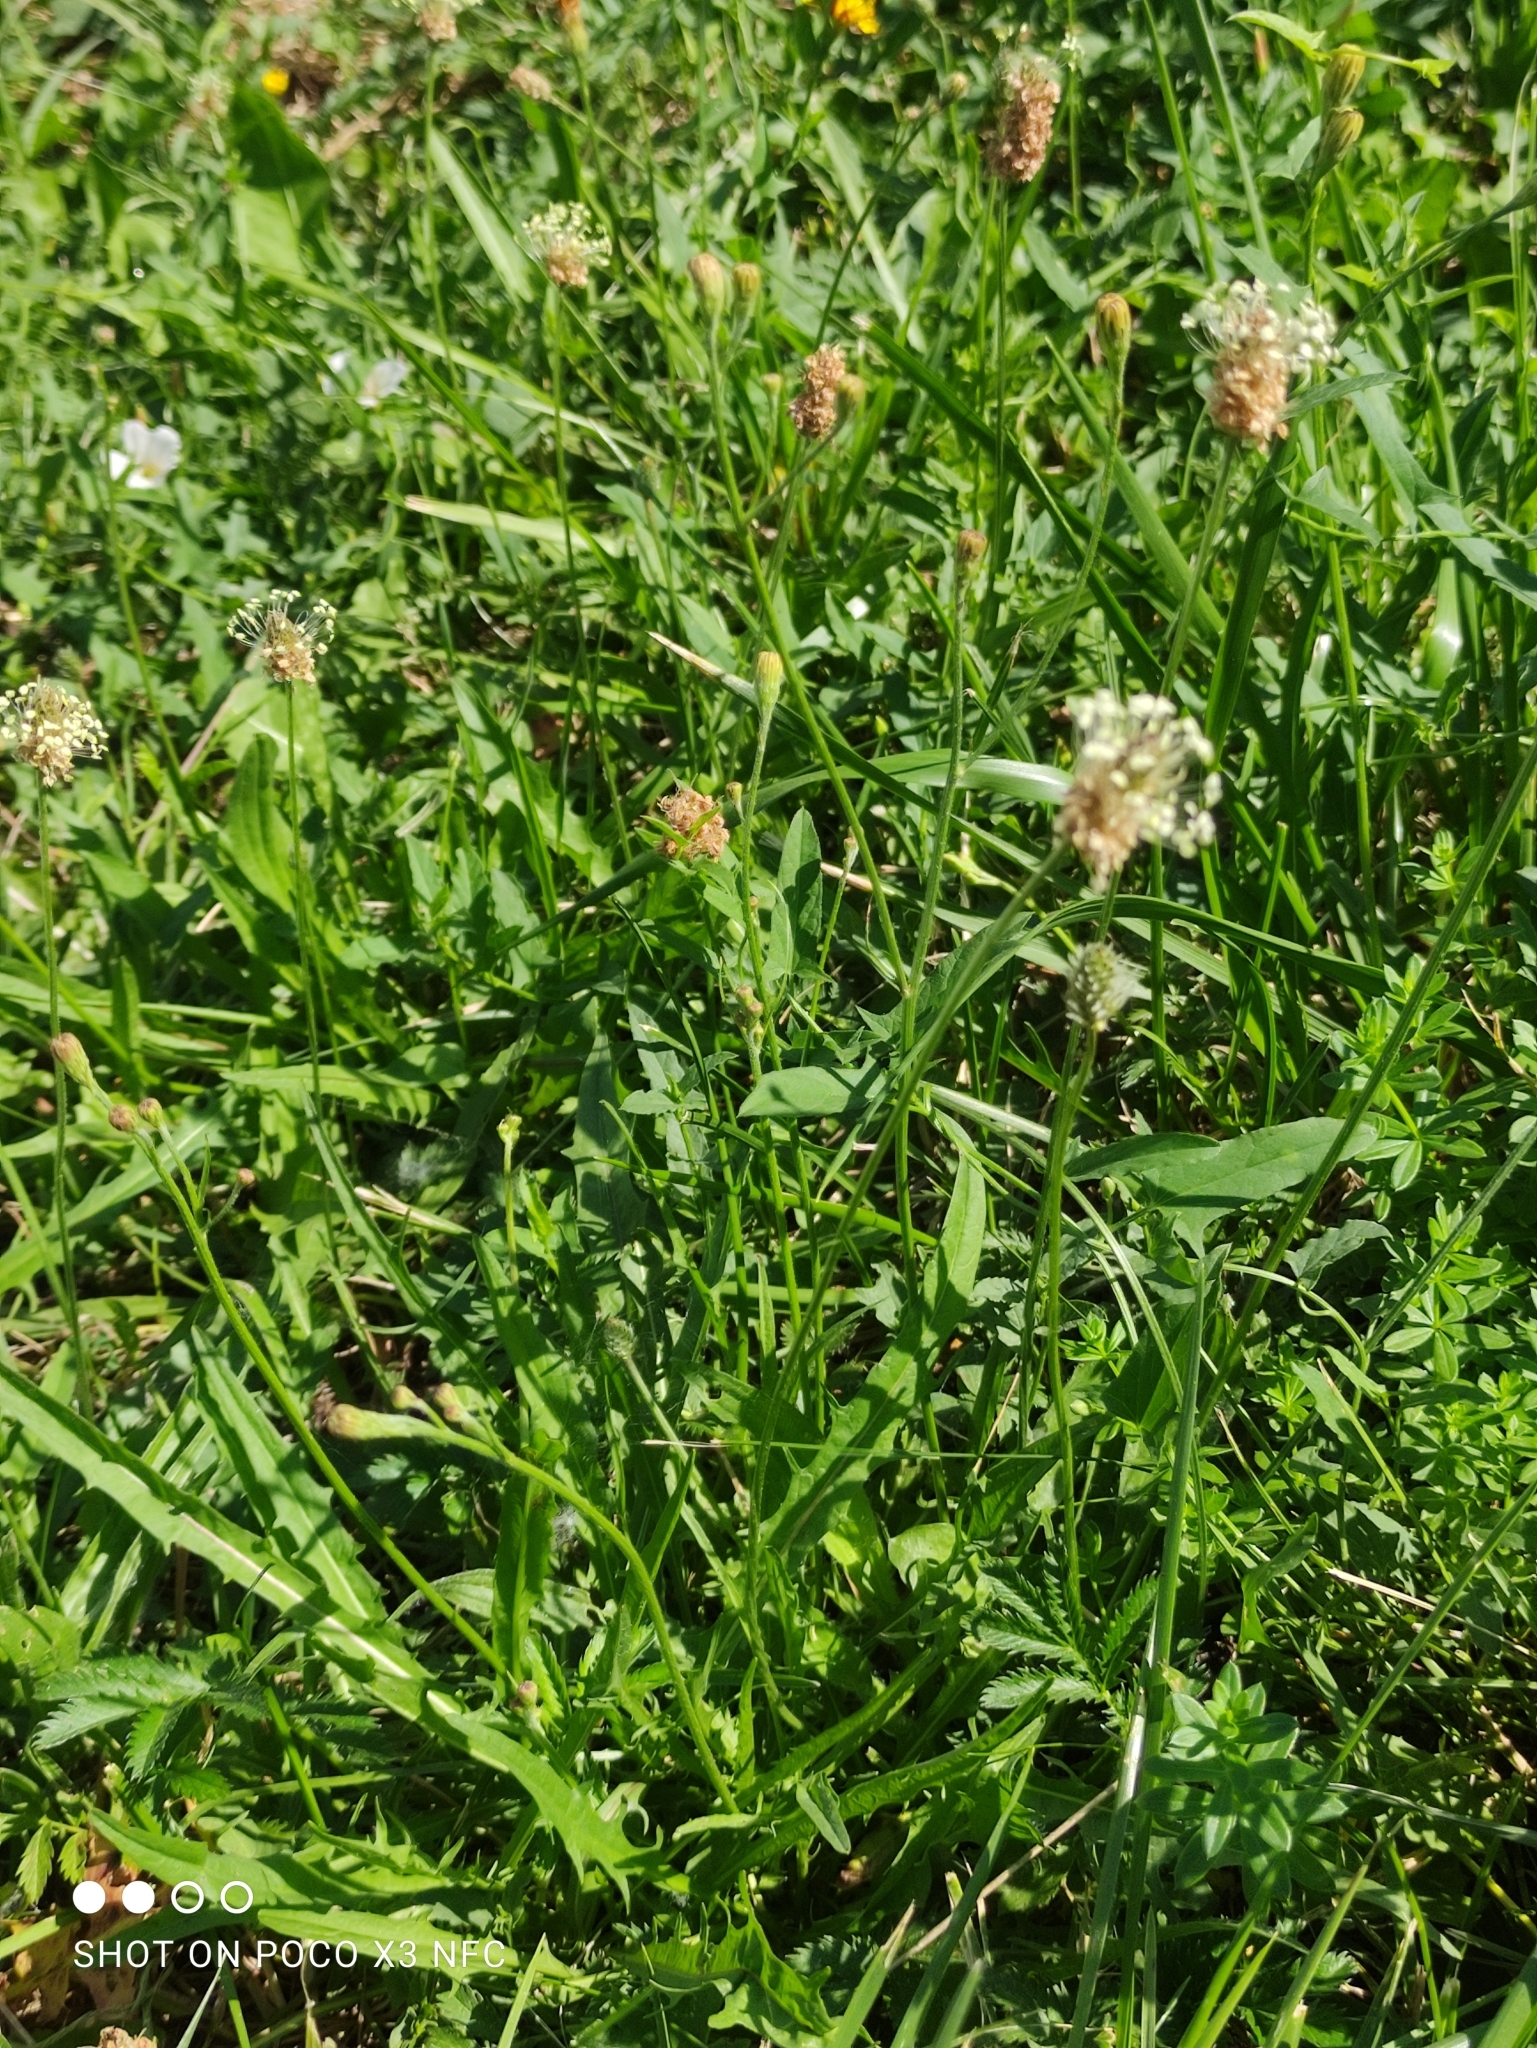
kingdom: Plantae
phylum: Tracheophyta
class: Magnoliopsida
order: Lamiales
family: Plantaginaceae
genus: Plantago
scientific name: Plantago lanceolata
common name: Ribwort plantain
